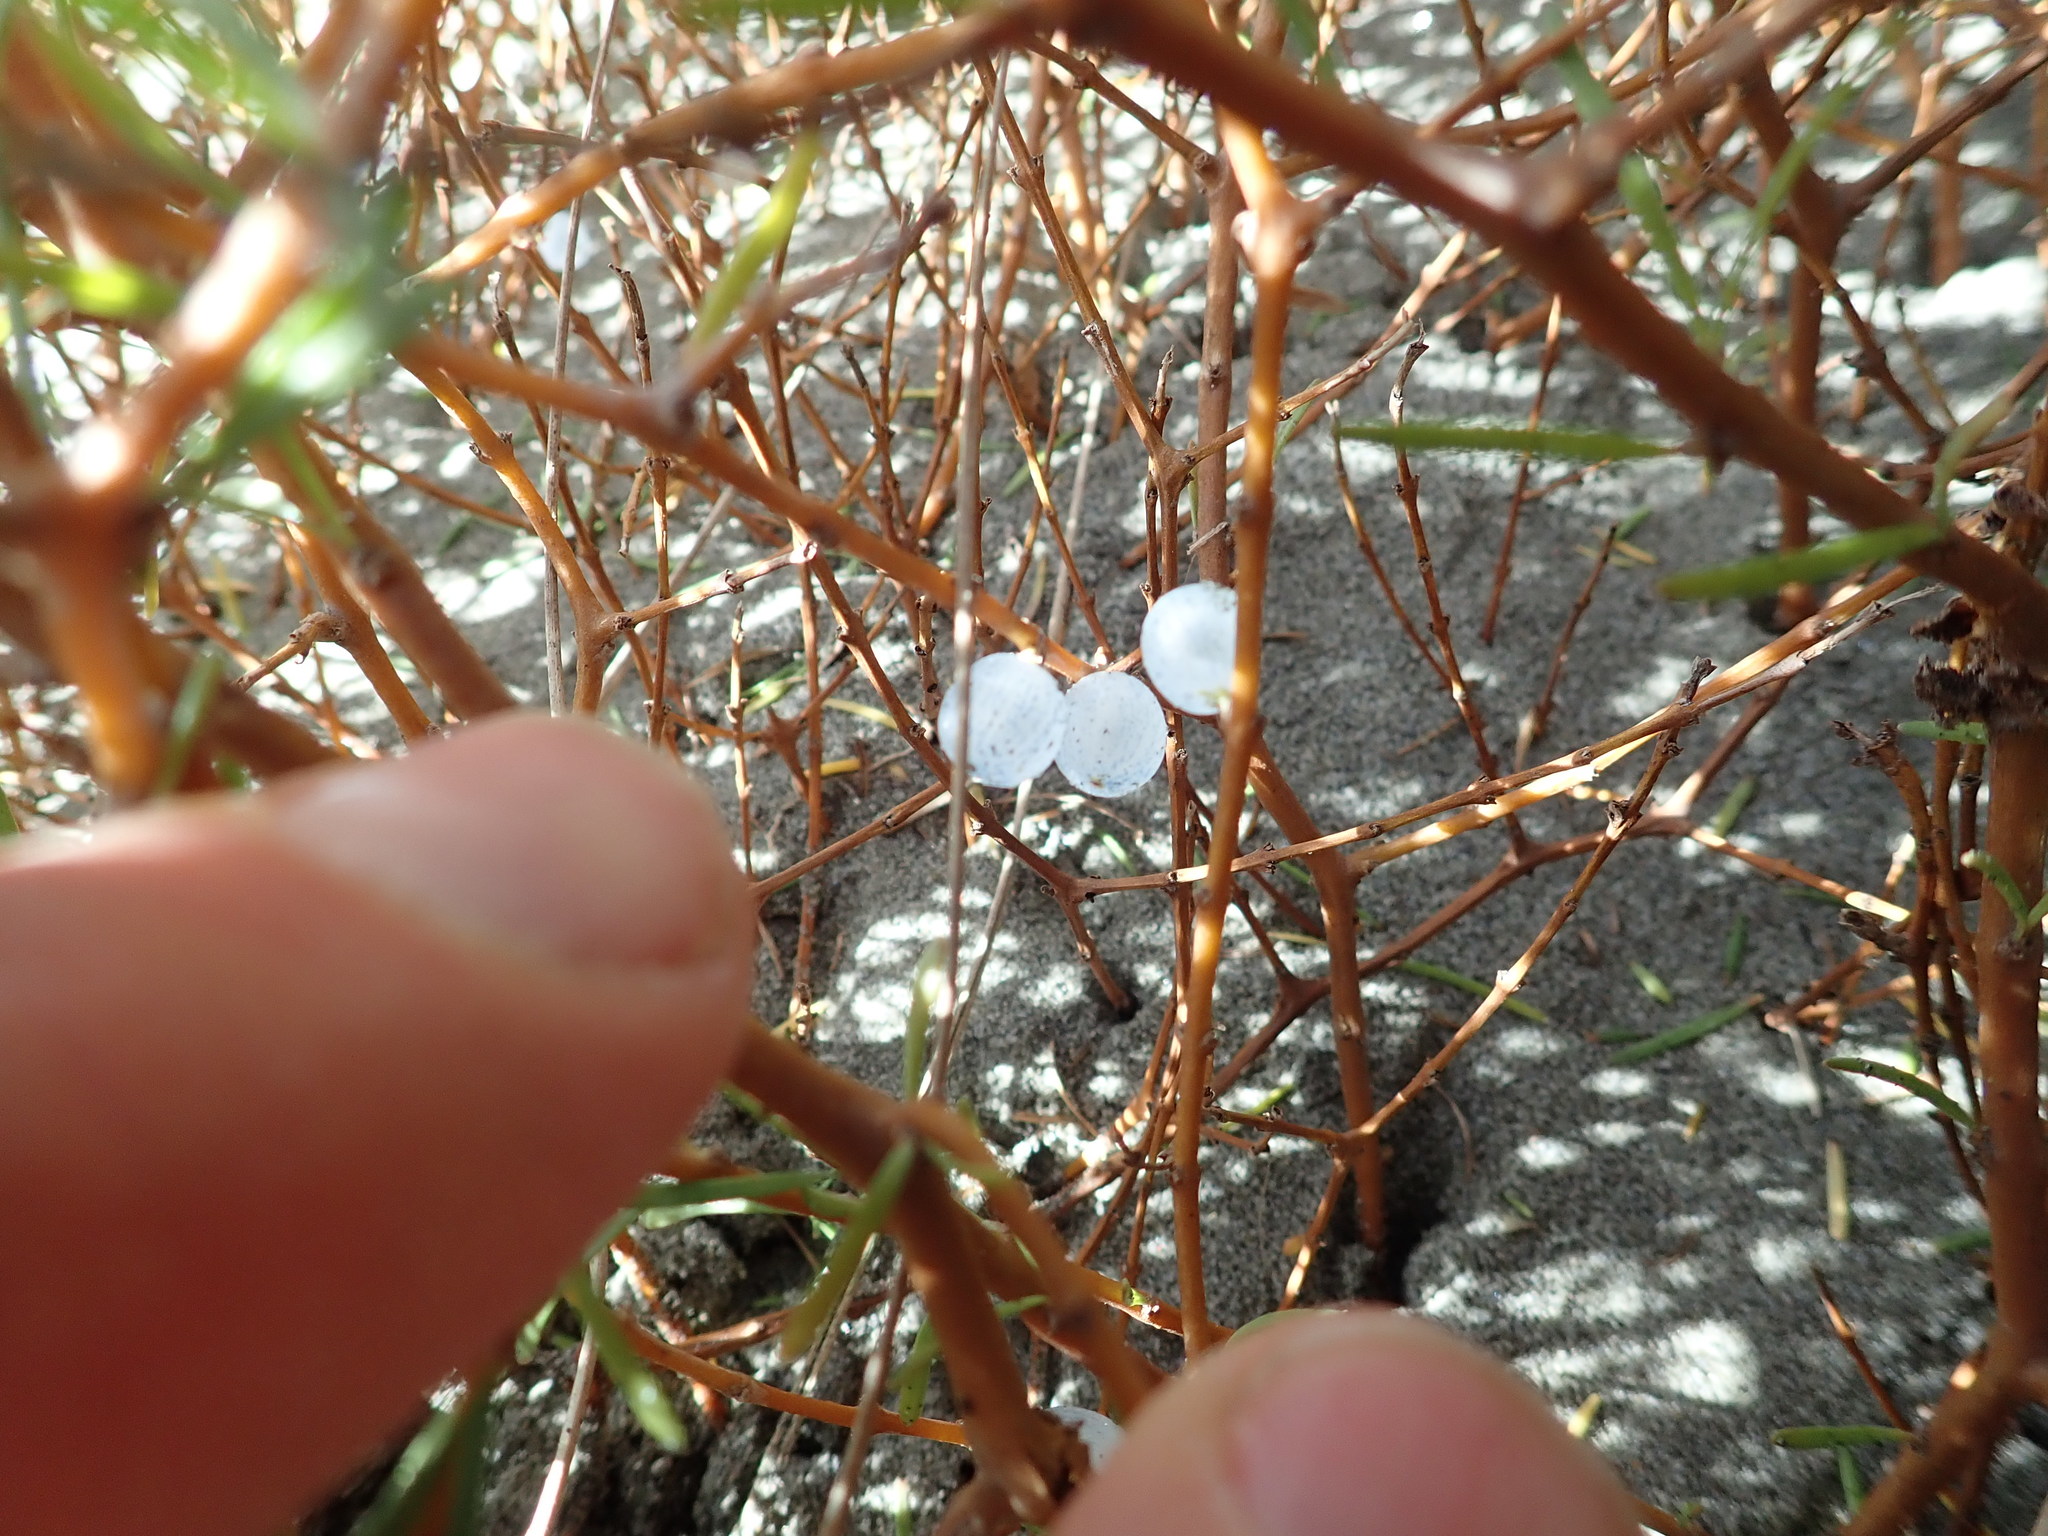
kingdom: Plantae
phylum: Tracheophyta
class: Magnoliopsida
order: Gentianales
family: Rubiaceae
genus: Coprosma
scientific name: Coprosma acerosa
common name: Sand coprosma
